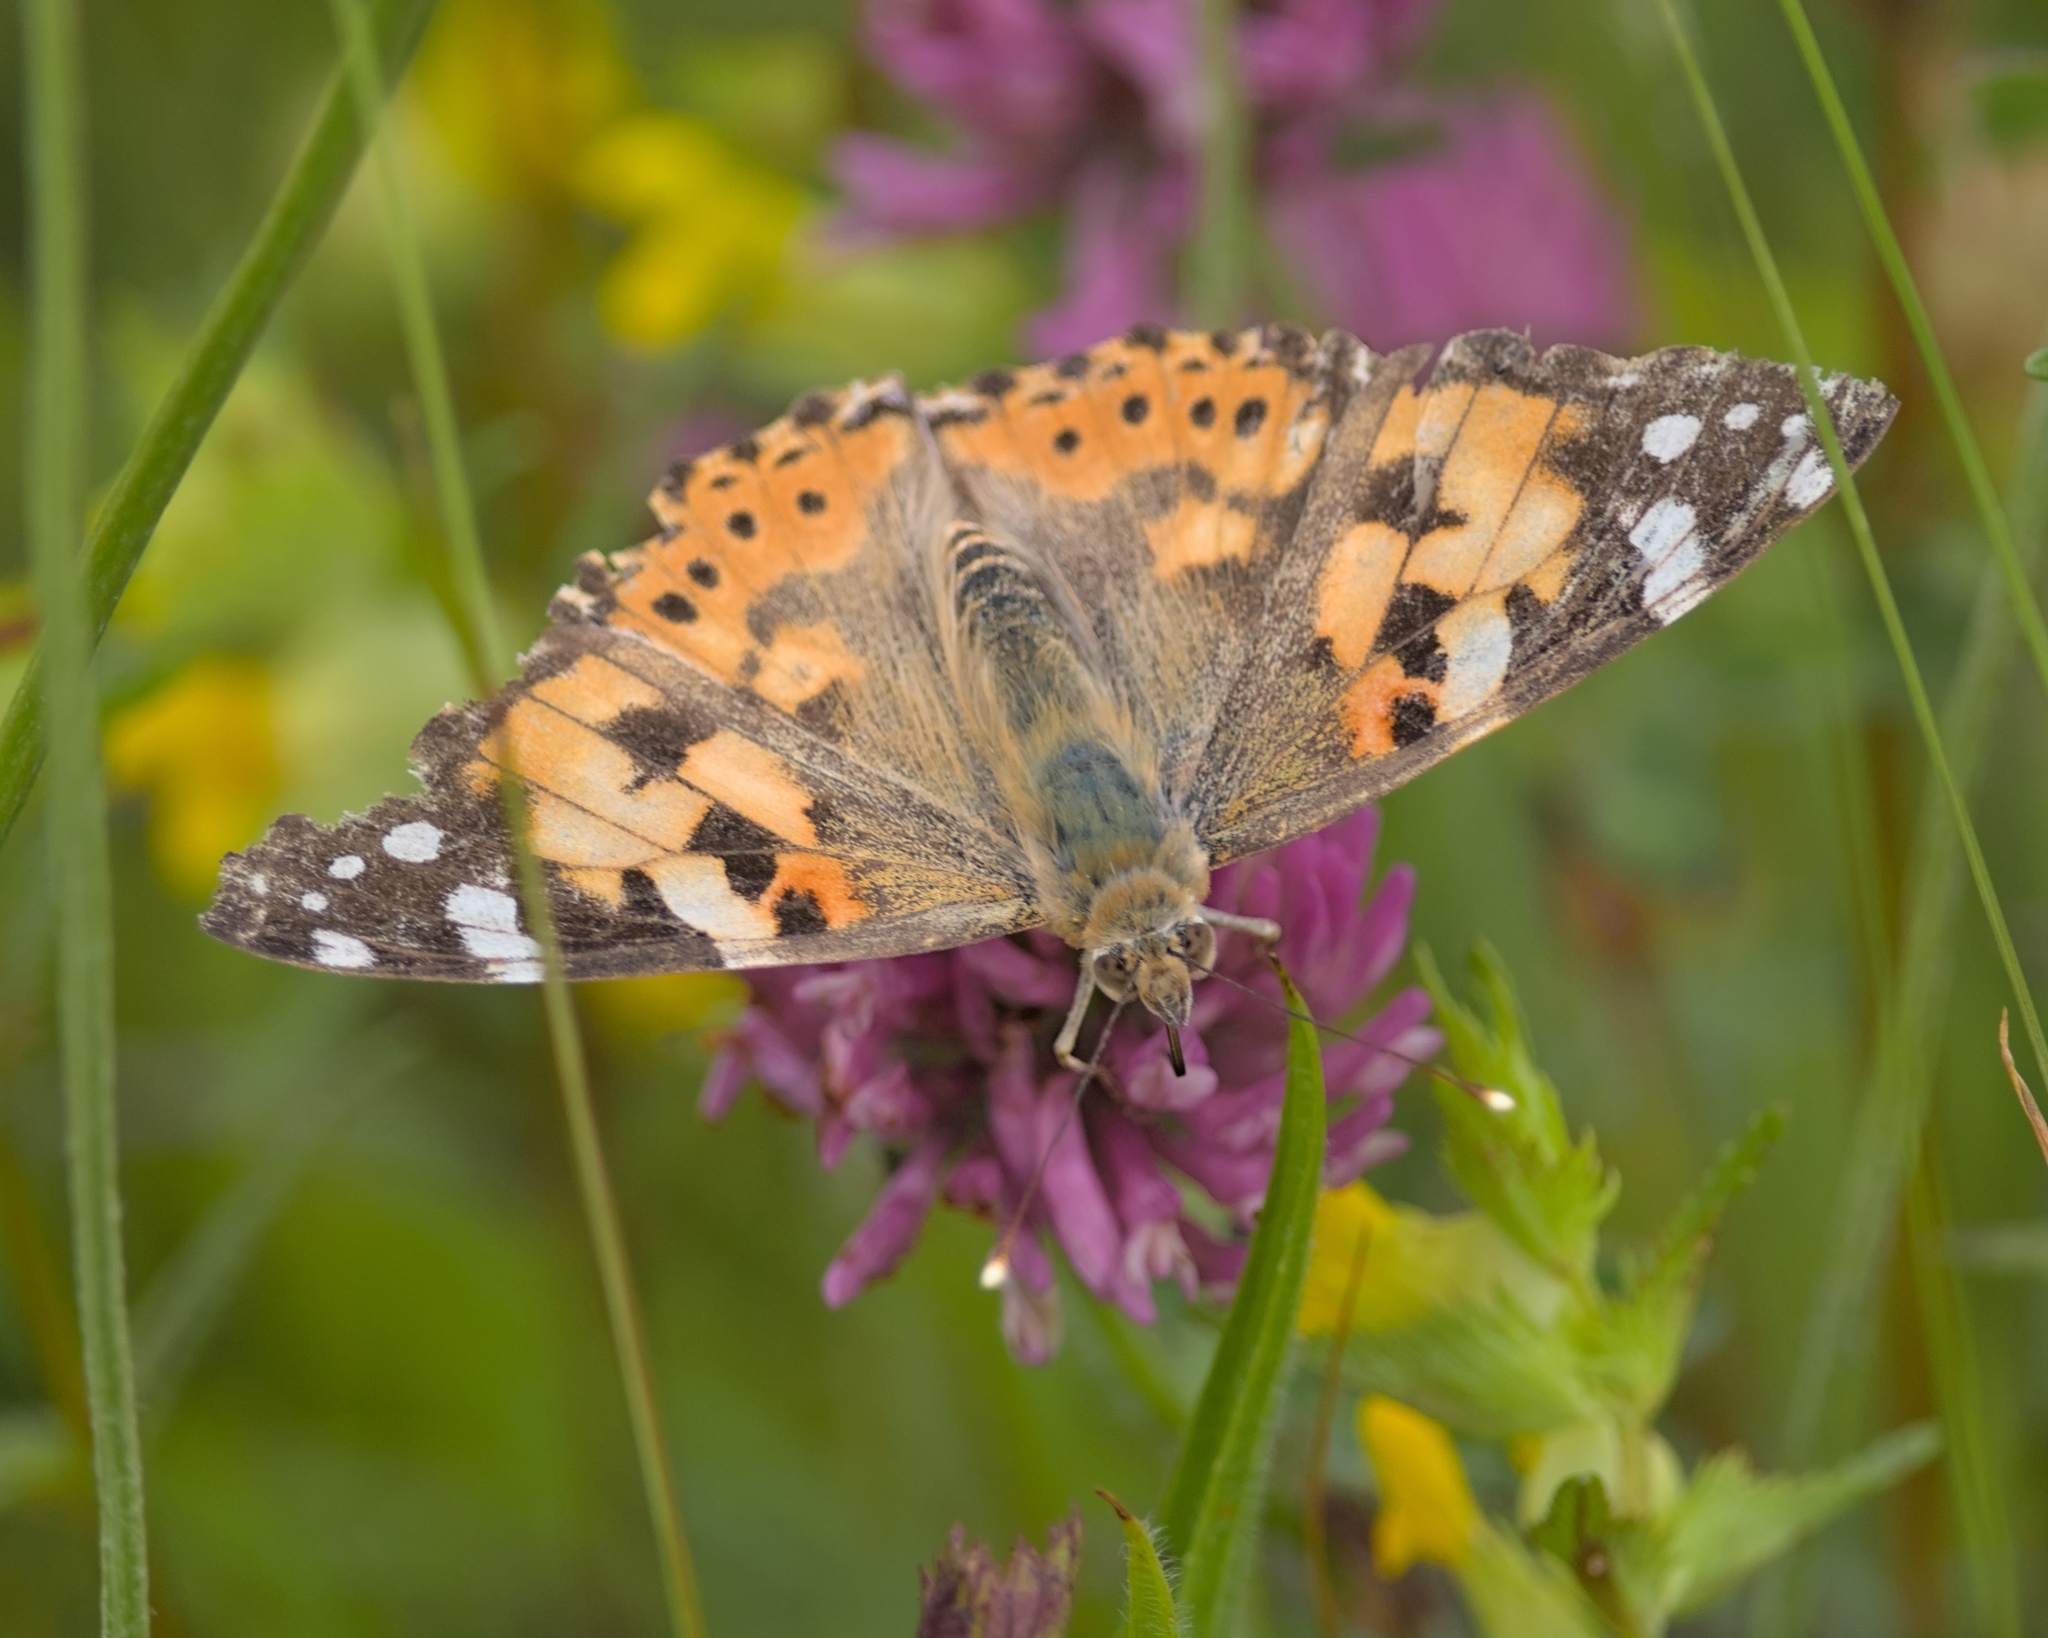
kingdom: Animalia
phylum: Arthropoda
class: Insecta
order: Lepidoptera
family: Nymphalidae
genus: Vanessa
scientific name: Vanessa cardui
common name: Painted lady
